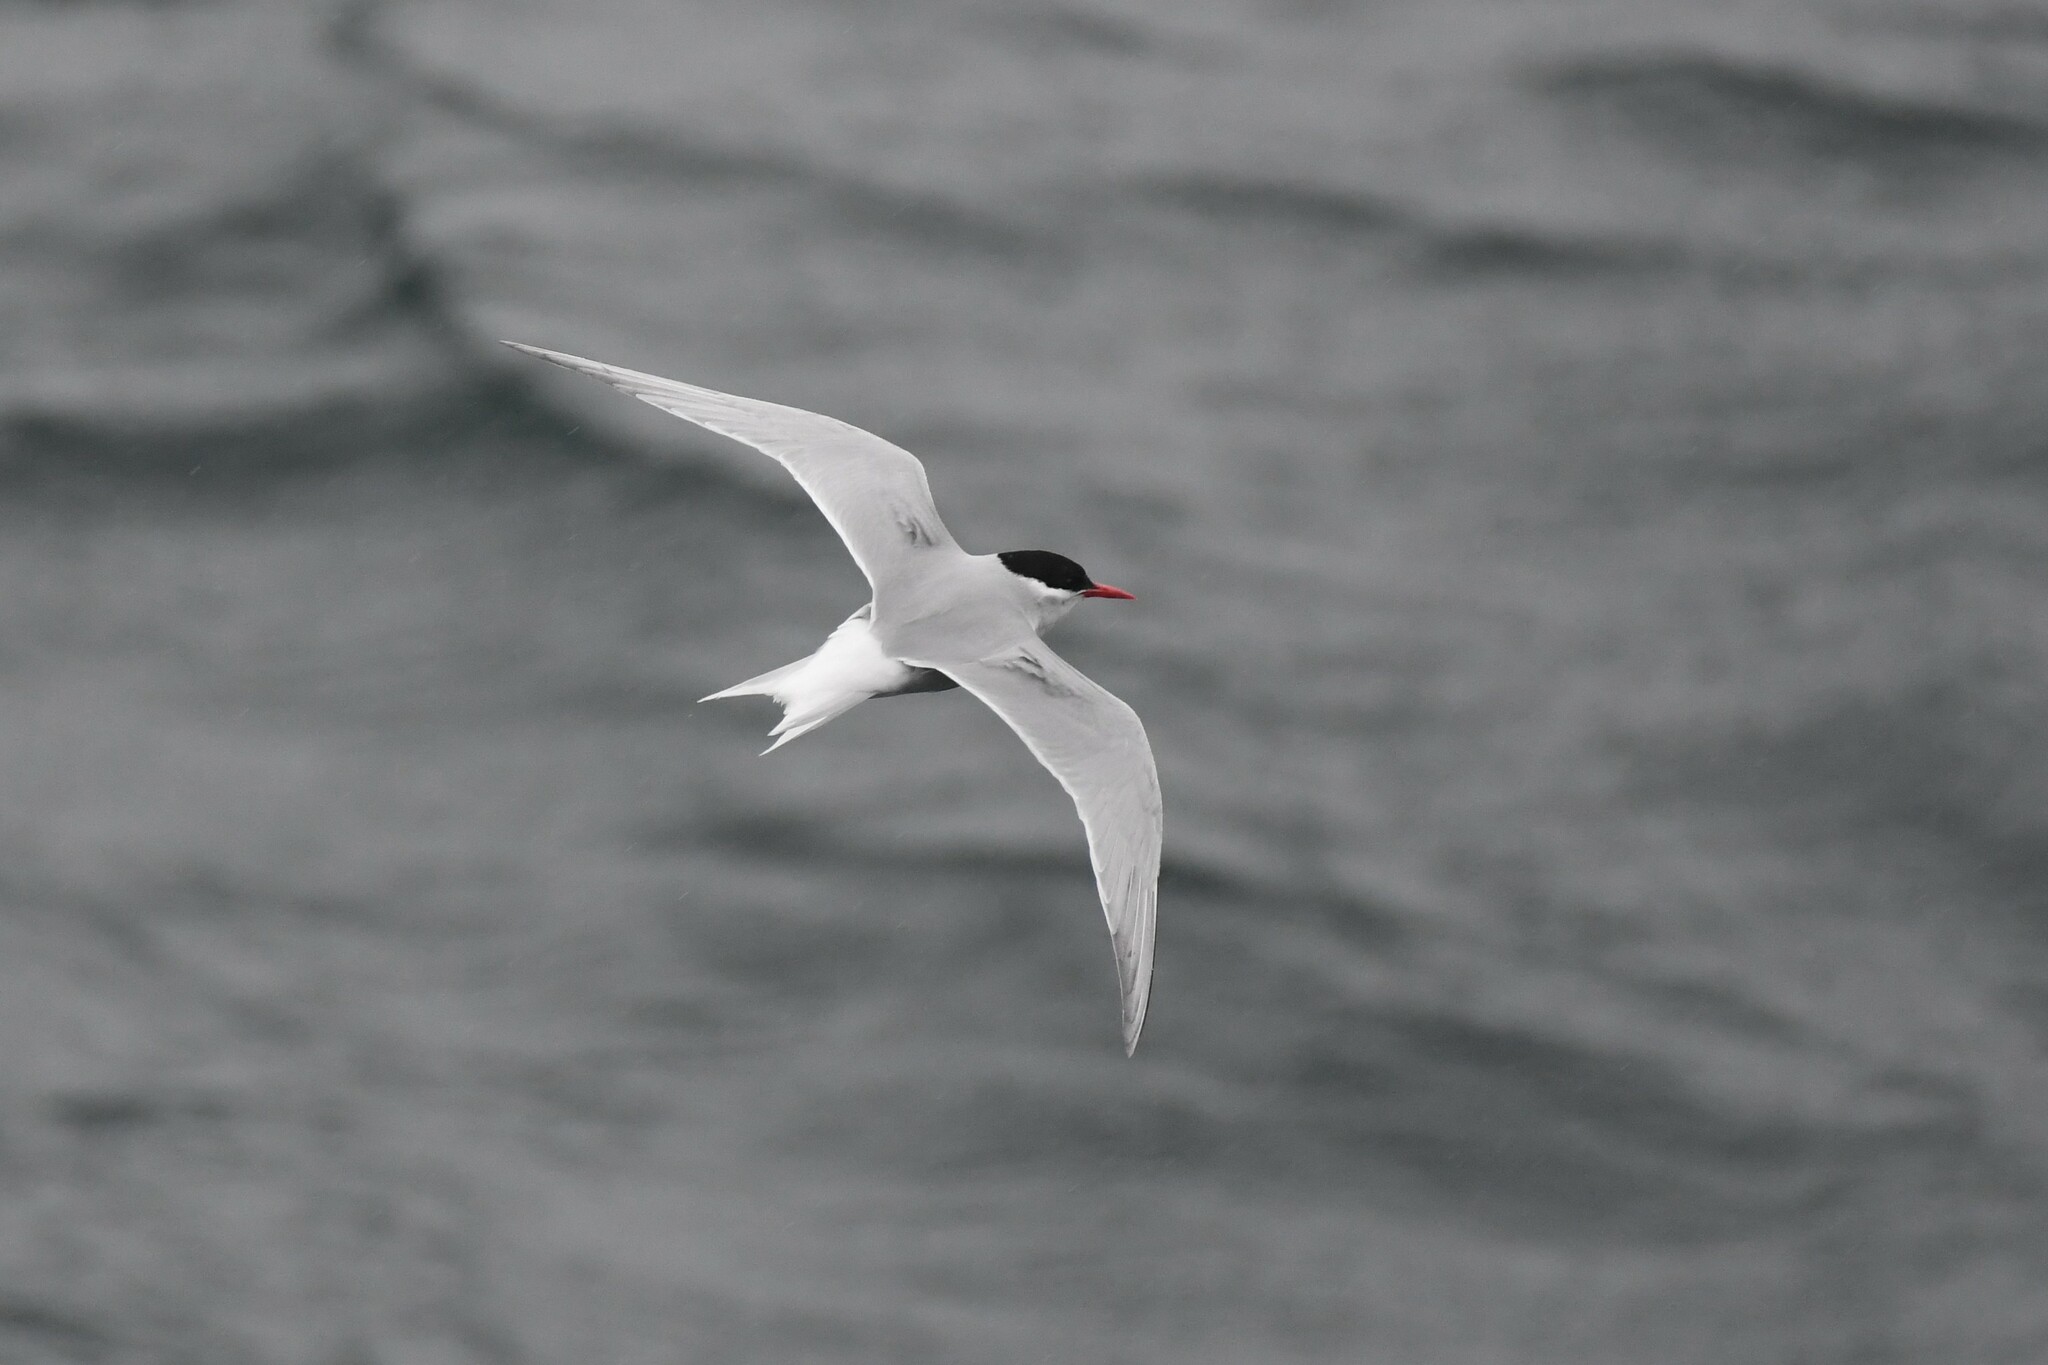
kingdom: Animalia
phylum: Chordata
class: Aves
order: Charadriiformes
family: Laridae
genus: Sterna
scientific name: Sterna vittata
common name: Antarctic tern
